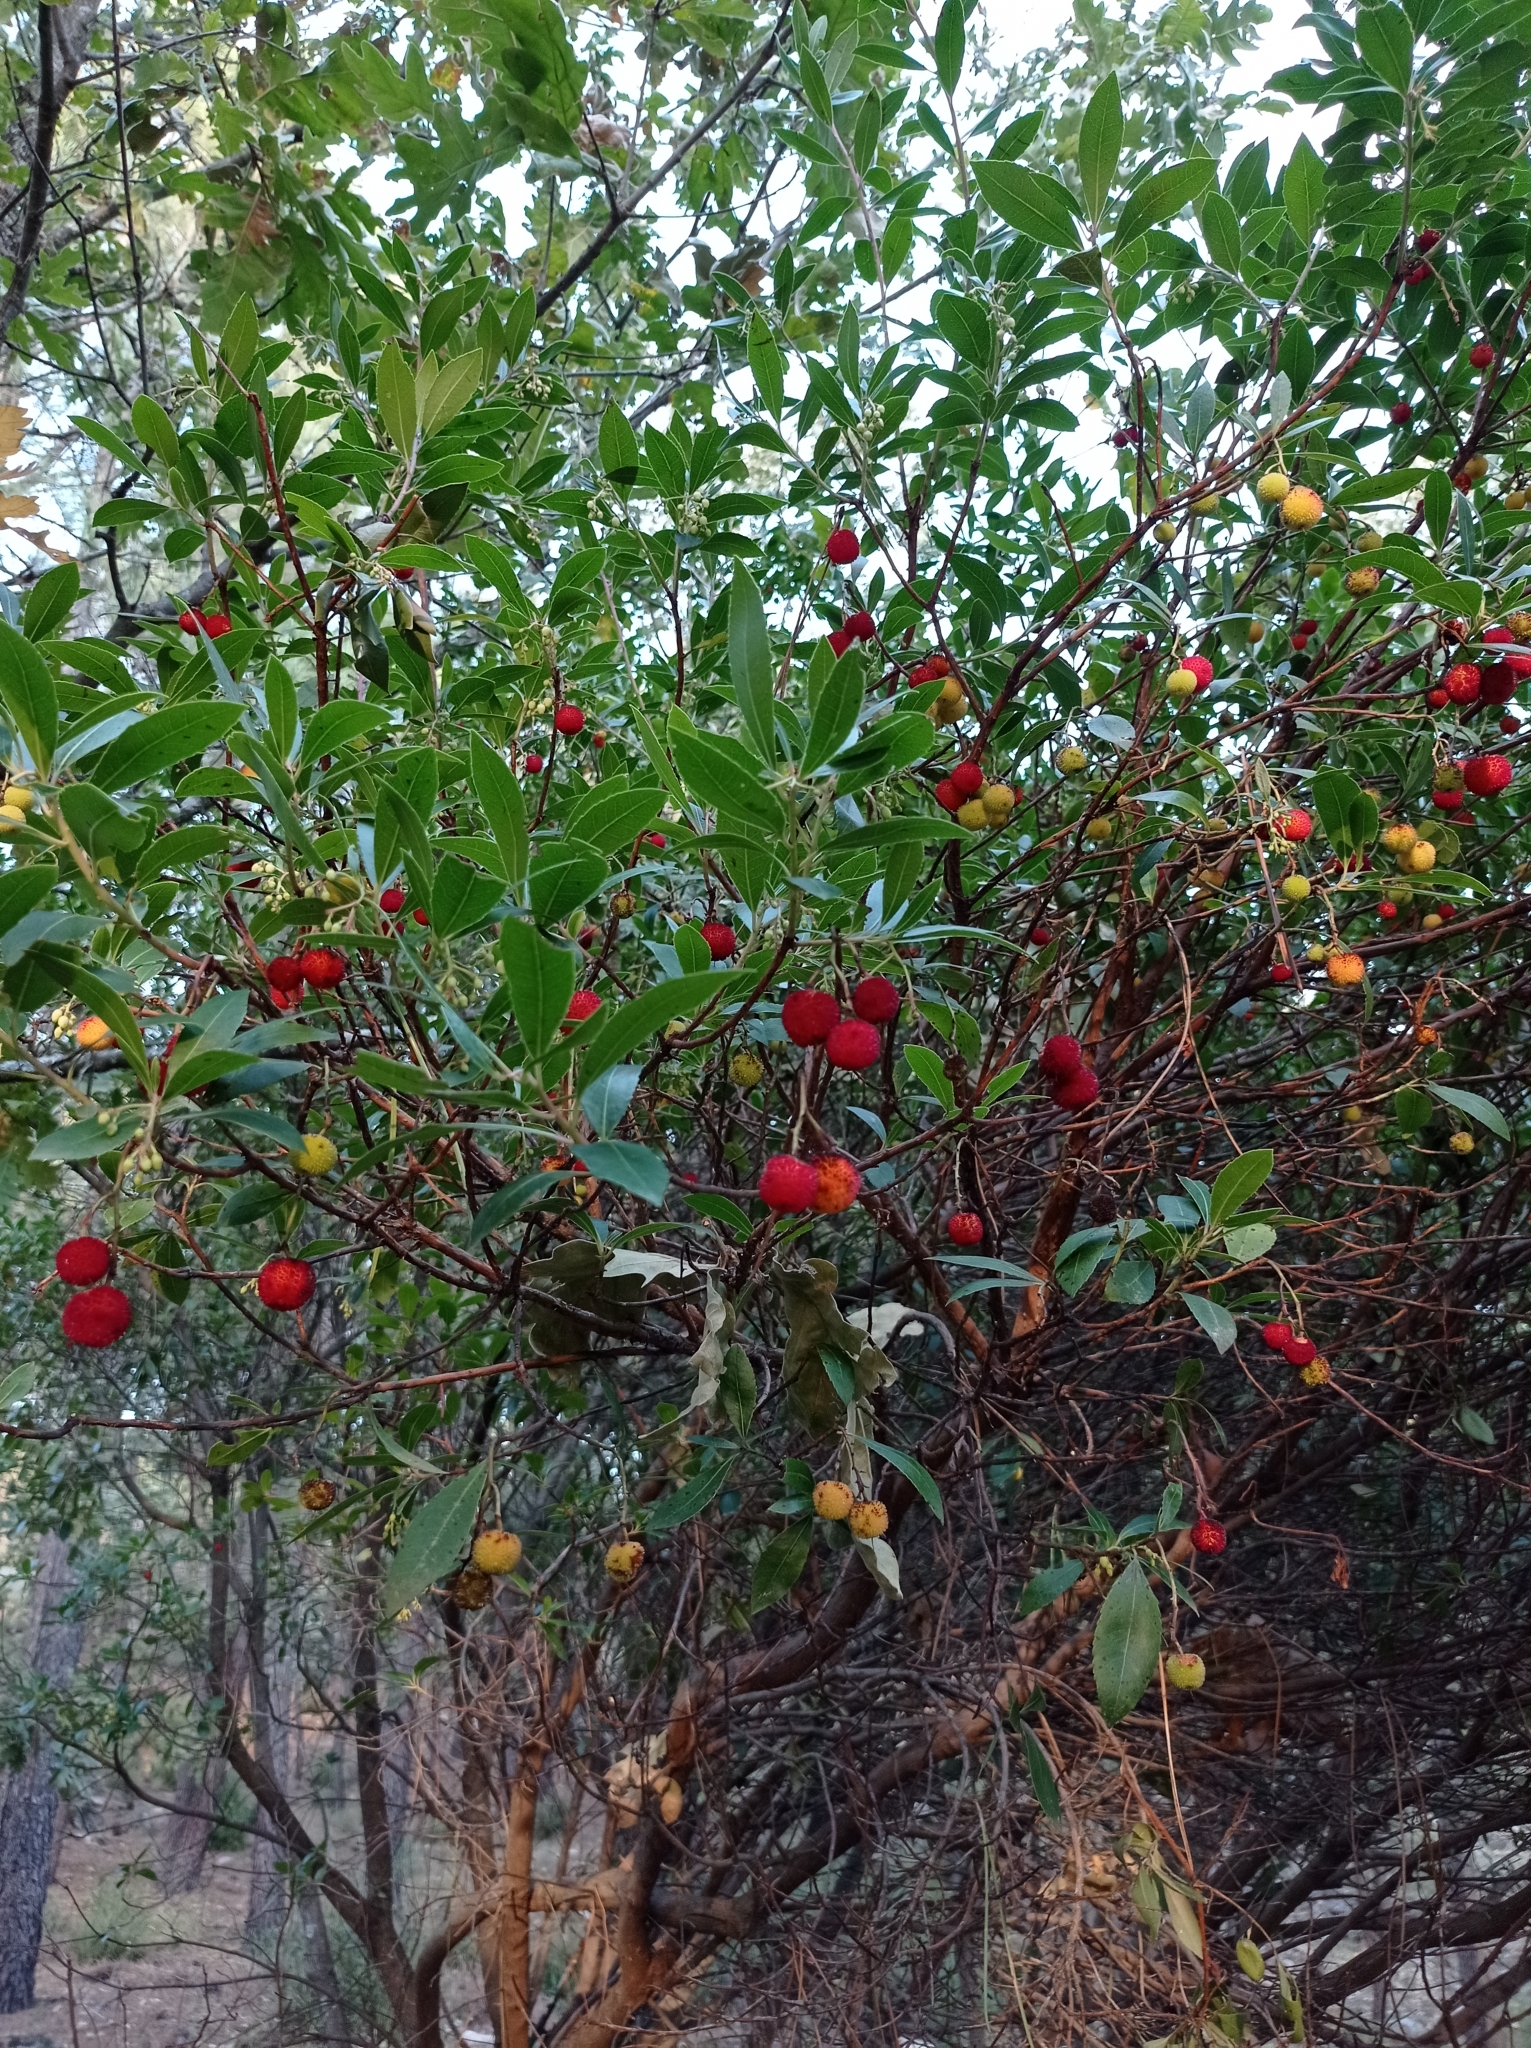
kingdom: Plantae
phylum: Tracheophyta
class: Magnoliopsida
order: Ericales
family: Ericaceae
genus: Arbutus
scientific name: Arbutus unedo
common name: Strawberry-tree
